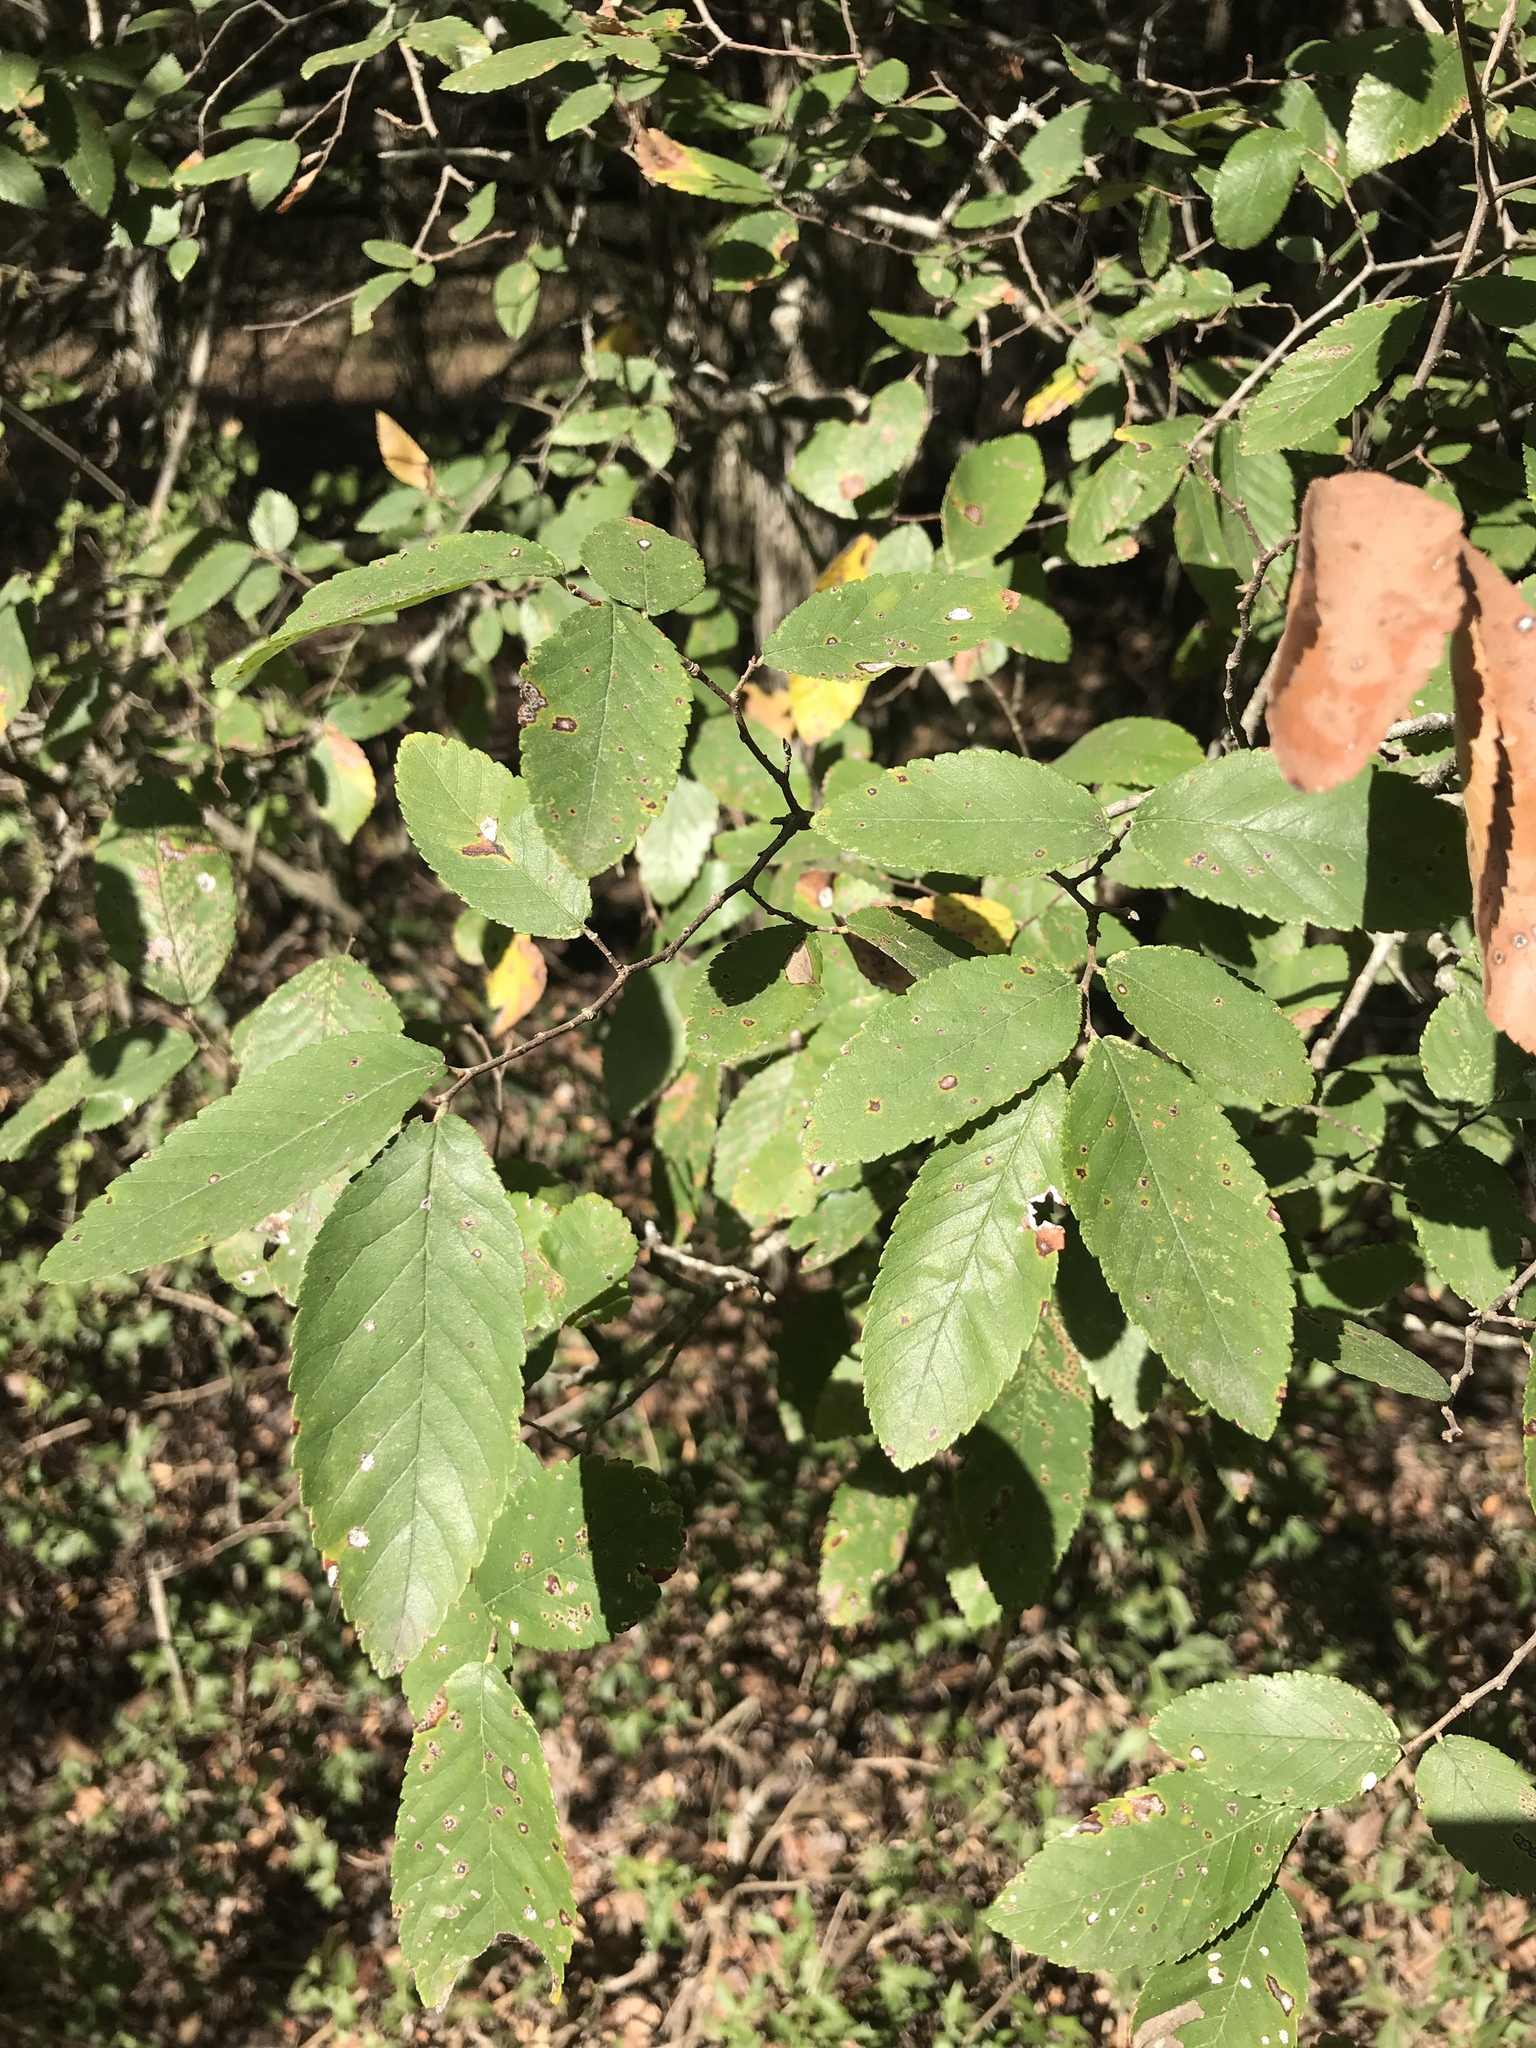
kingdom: Plantae
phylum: Tracheophyta
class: Magnoliopsida
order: Rosales
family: Ulmaceae
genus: Ulmus
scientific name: Ulmus crassifolia
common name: Basket elm
